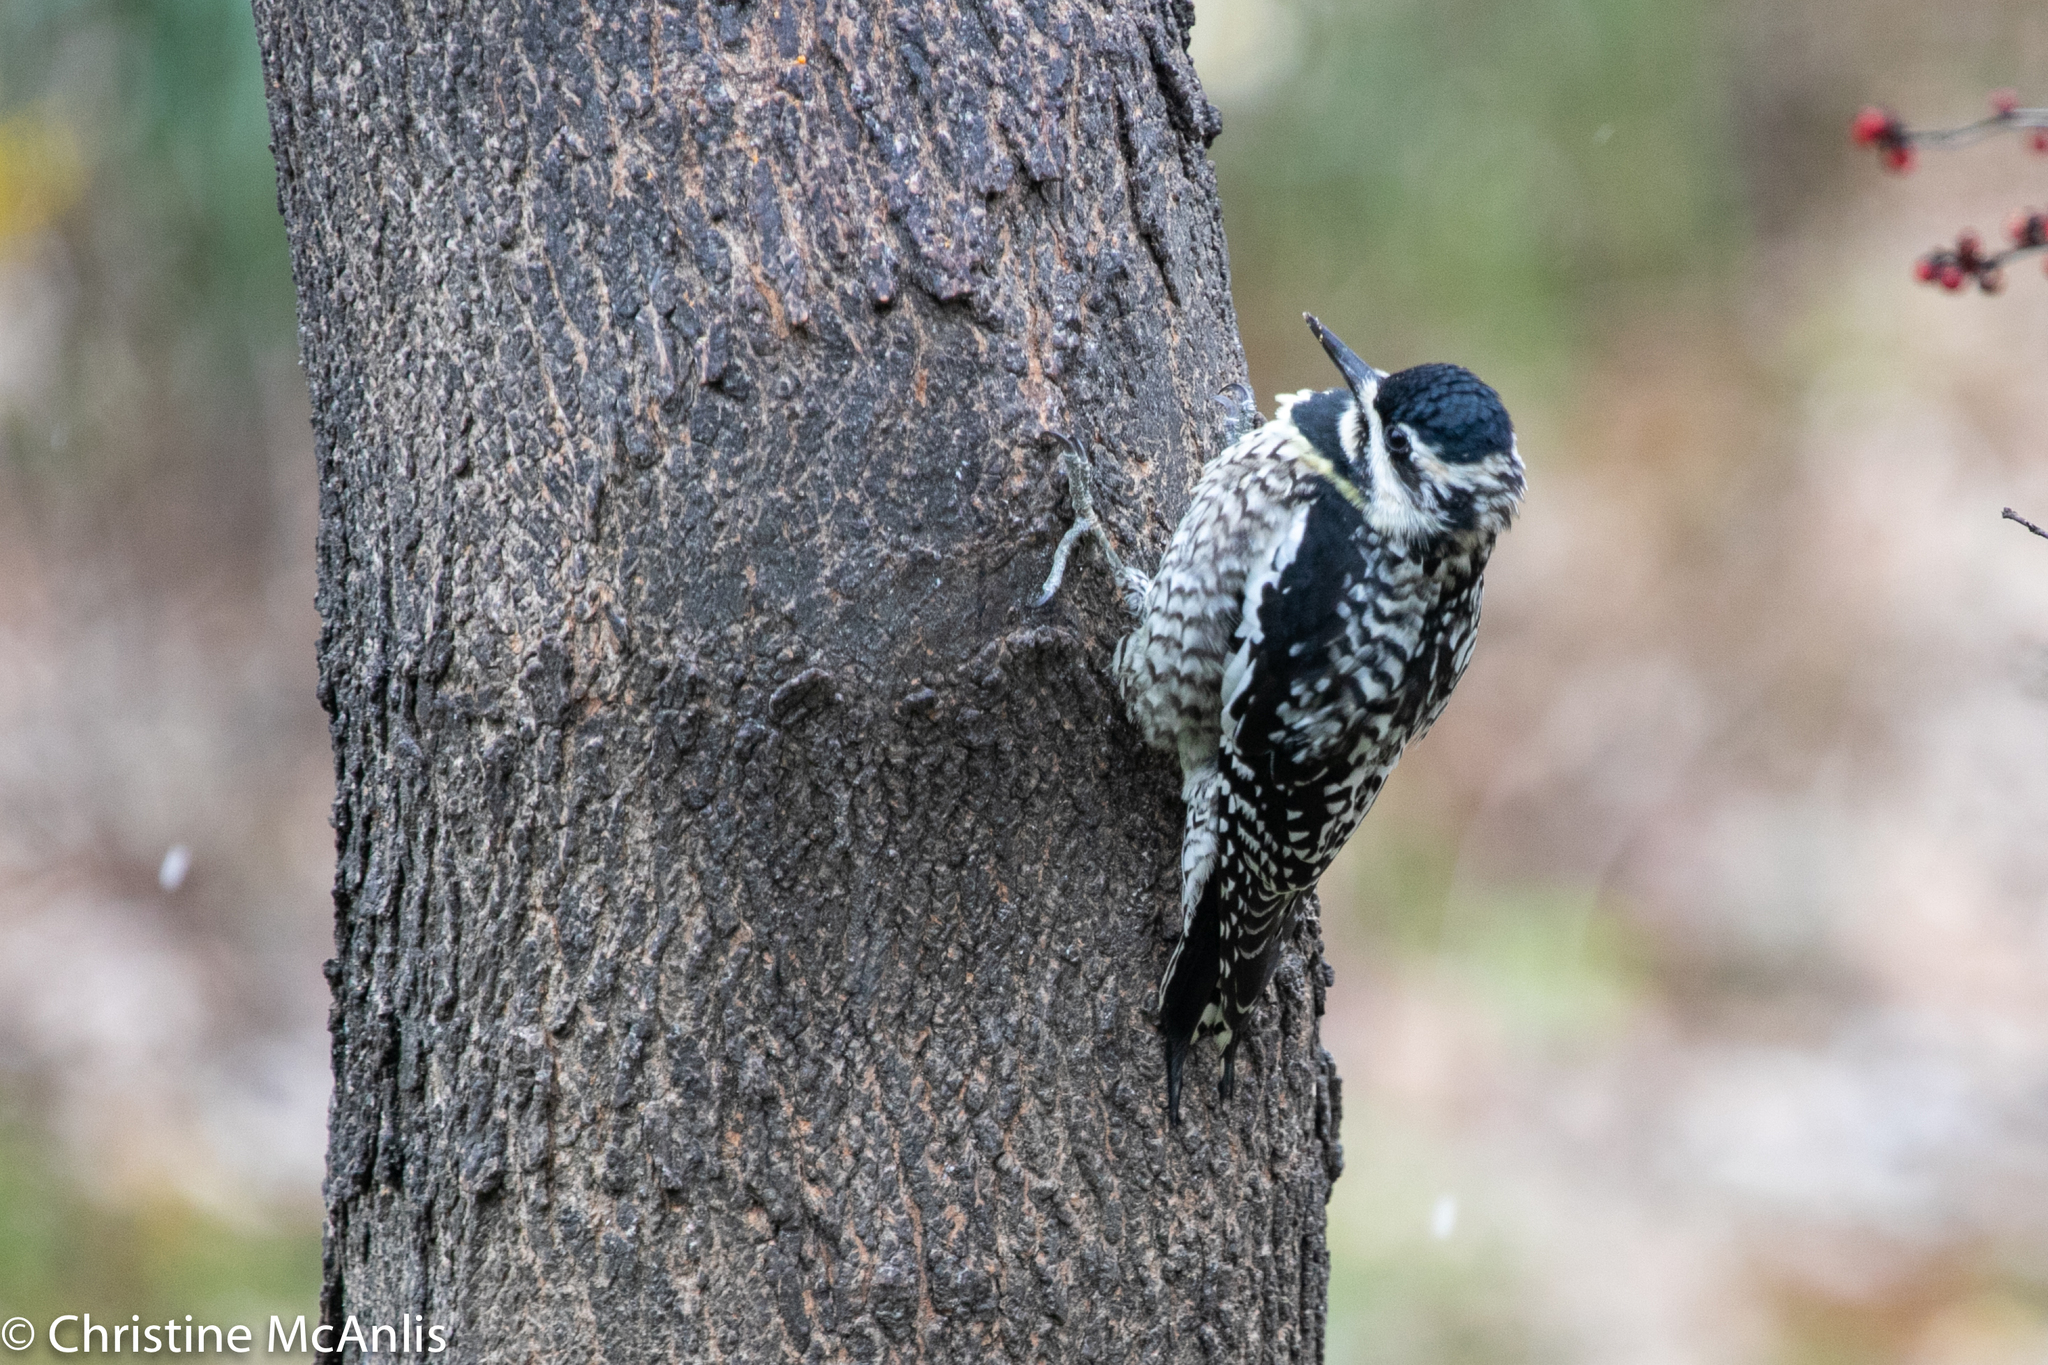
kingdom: Animalia
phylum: Chordata
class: Aves
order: Piciformes
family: Picidae
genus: Sphyrapicus
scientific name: Sphyrapicus varius
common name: Yellow-bellied sapsucker
